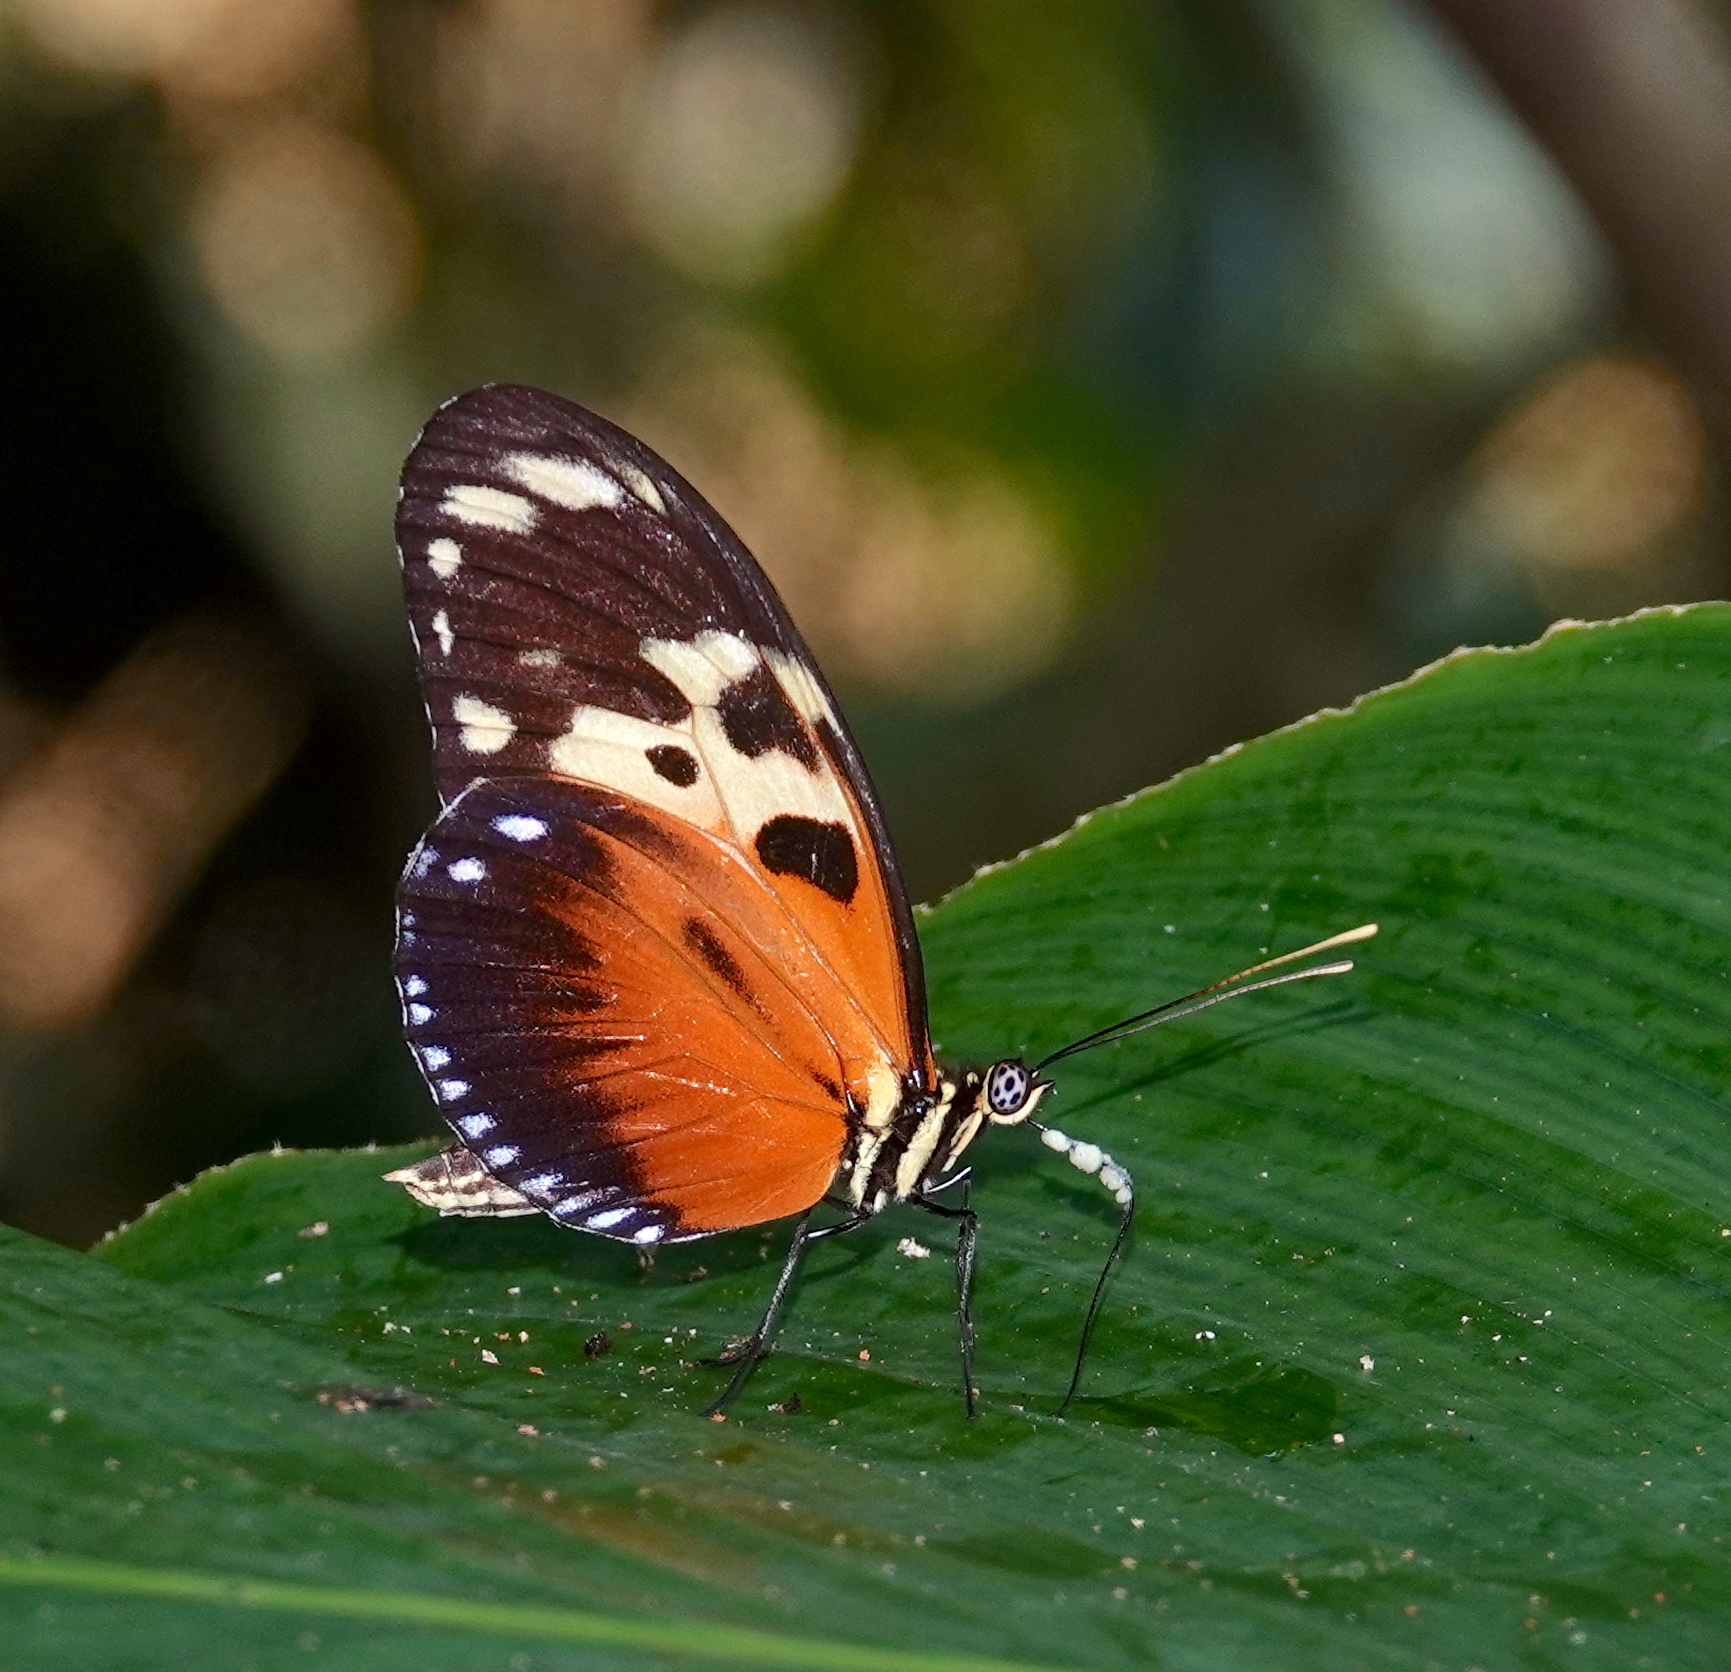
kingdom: Animalia
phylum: Arthropoda
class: Insecta
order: Lepidoptera
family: Nymphalidae
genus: Heliconius
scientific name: Heliconius hecale
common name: Tiger longwing
